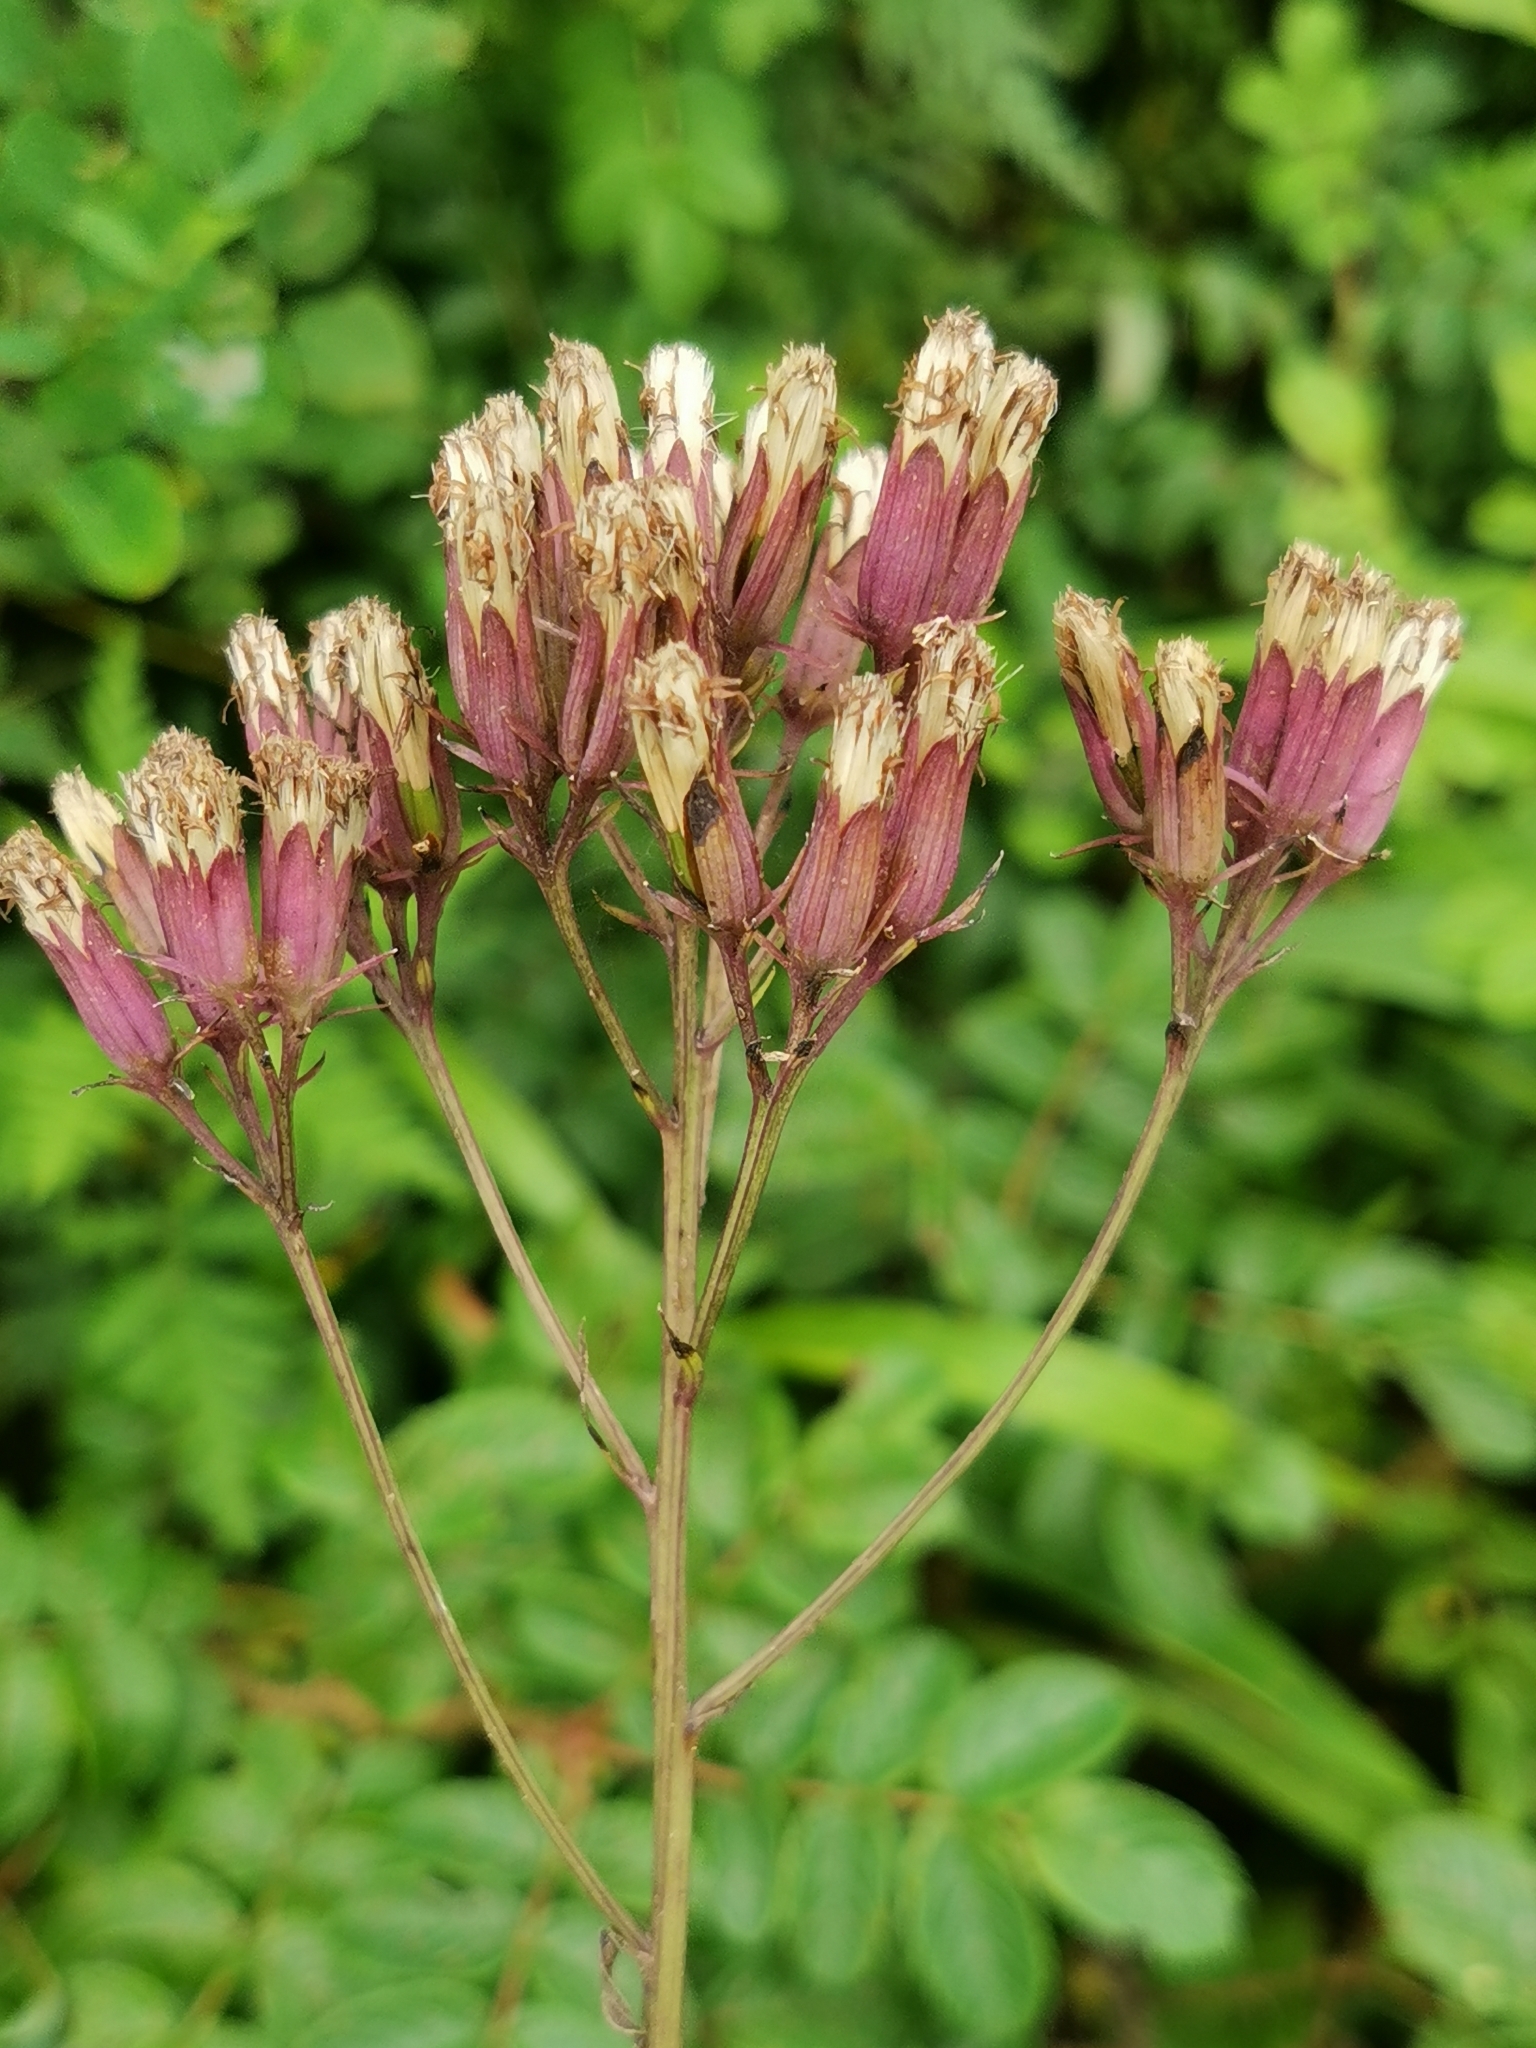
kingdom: Plantae
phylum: Tracheophyta
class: Magnoliopsida
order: Asterales
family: Asteraceae
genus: Syneilesis
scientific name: Syneilesis aconitifolia
